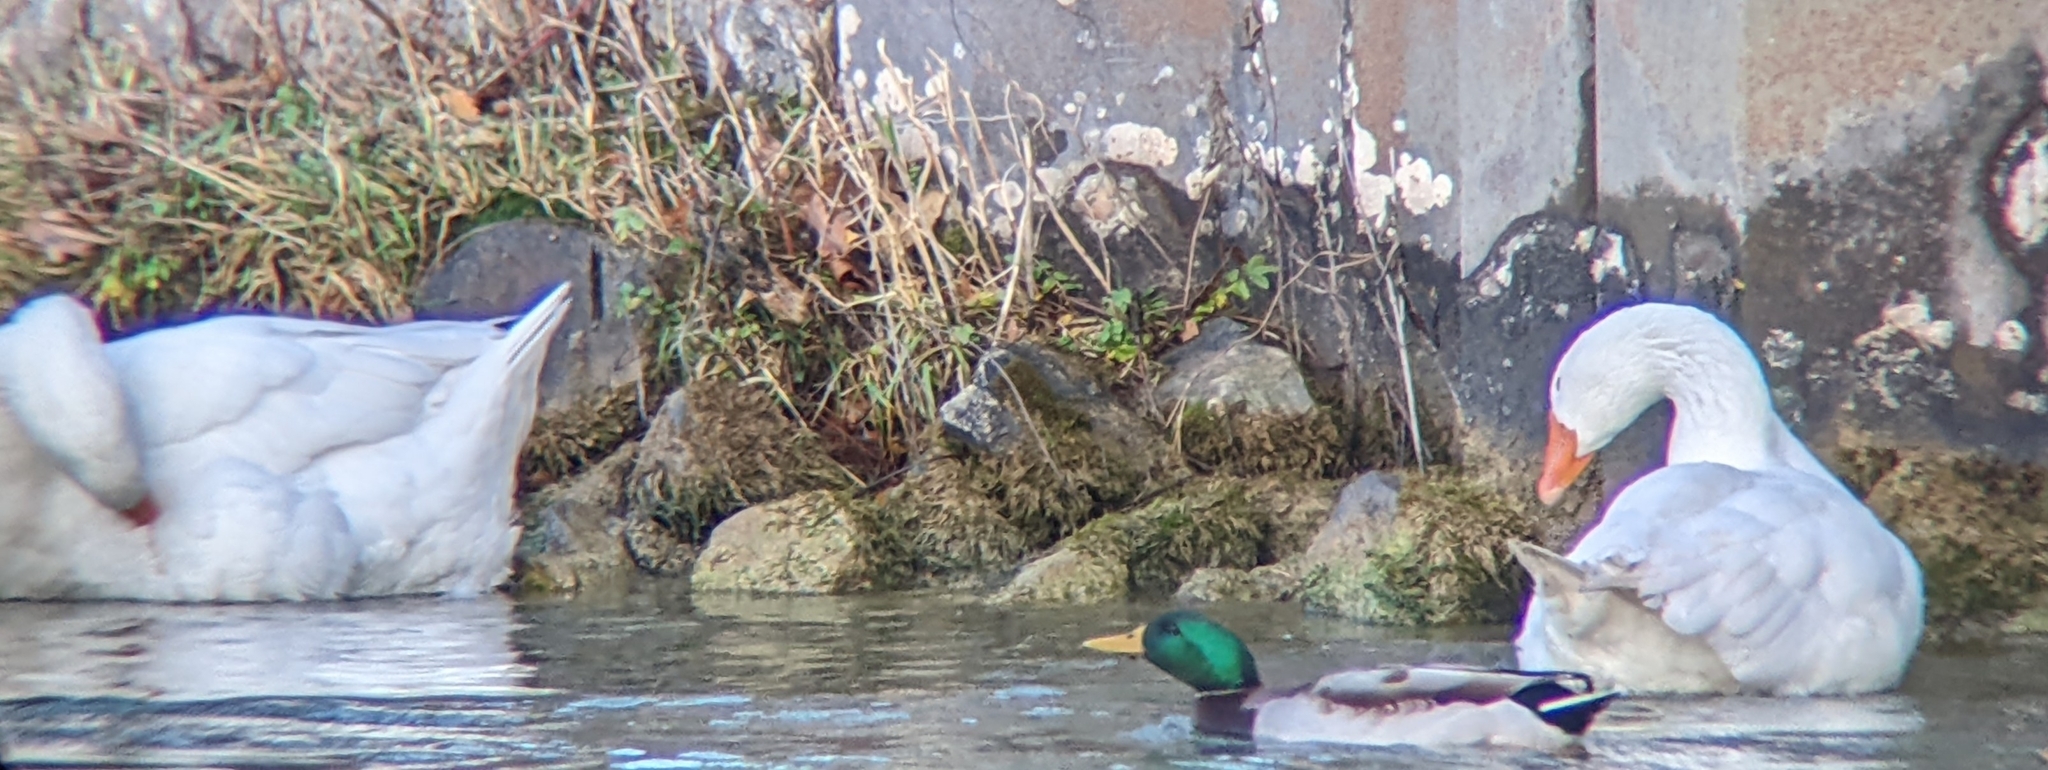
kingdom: Animalia
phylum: Chordata
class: Aves
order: Anseriformes
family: Anatidae
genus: Anser
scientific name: Anser anser
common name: Greylag goose
